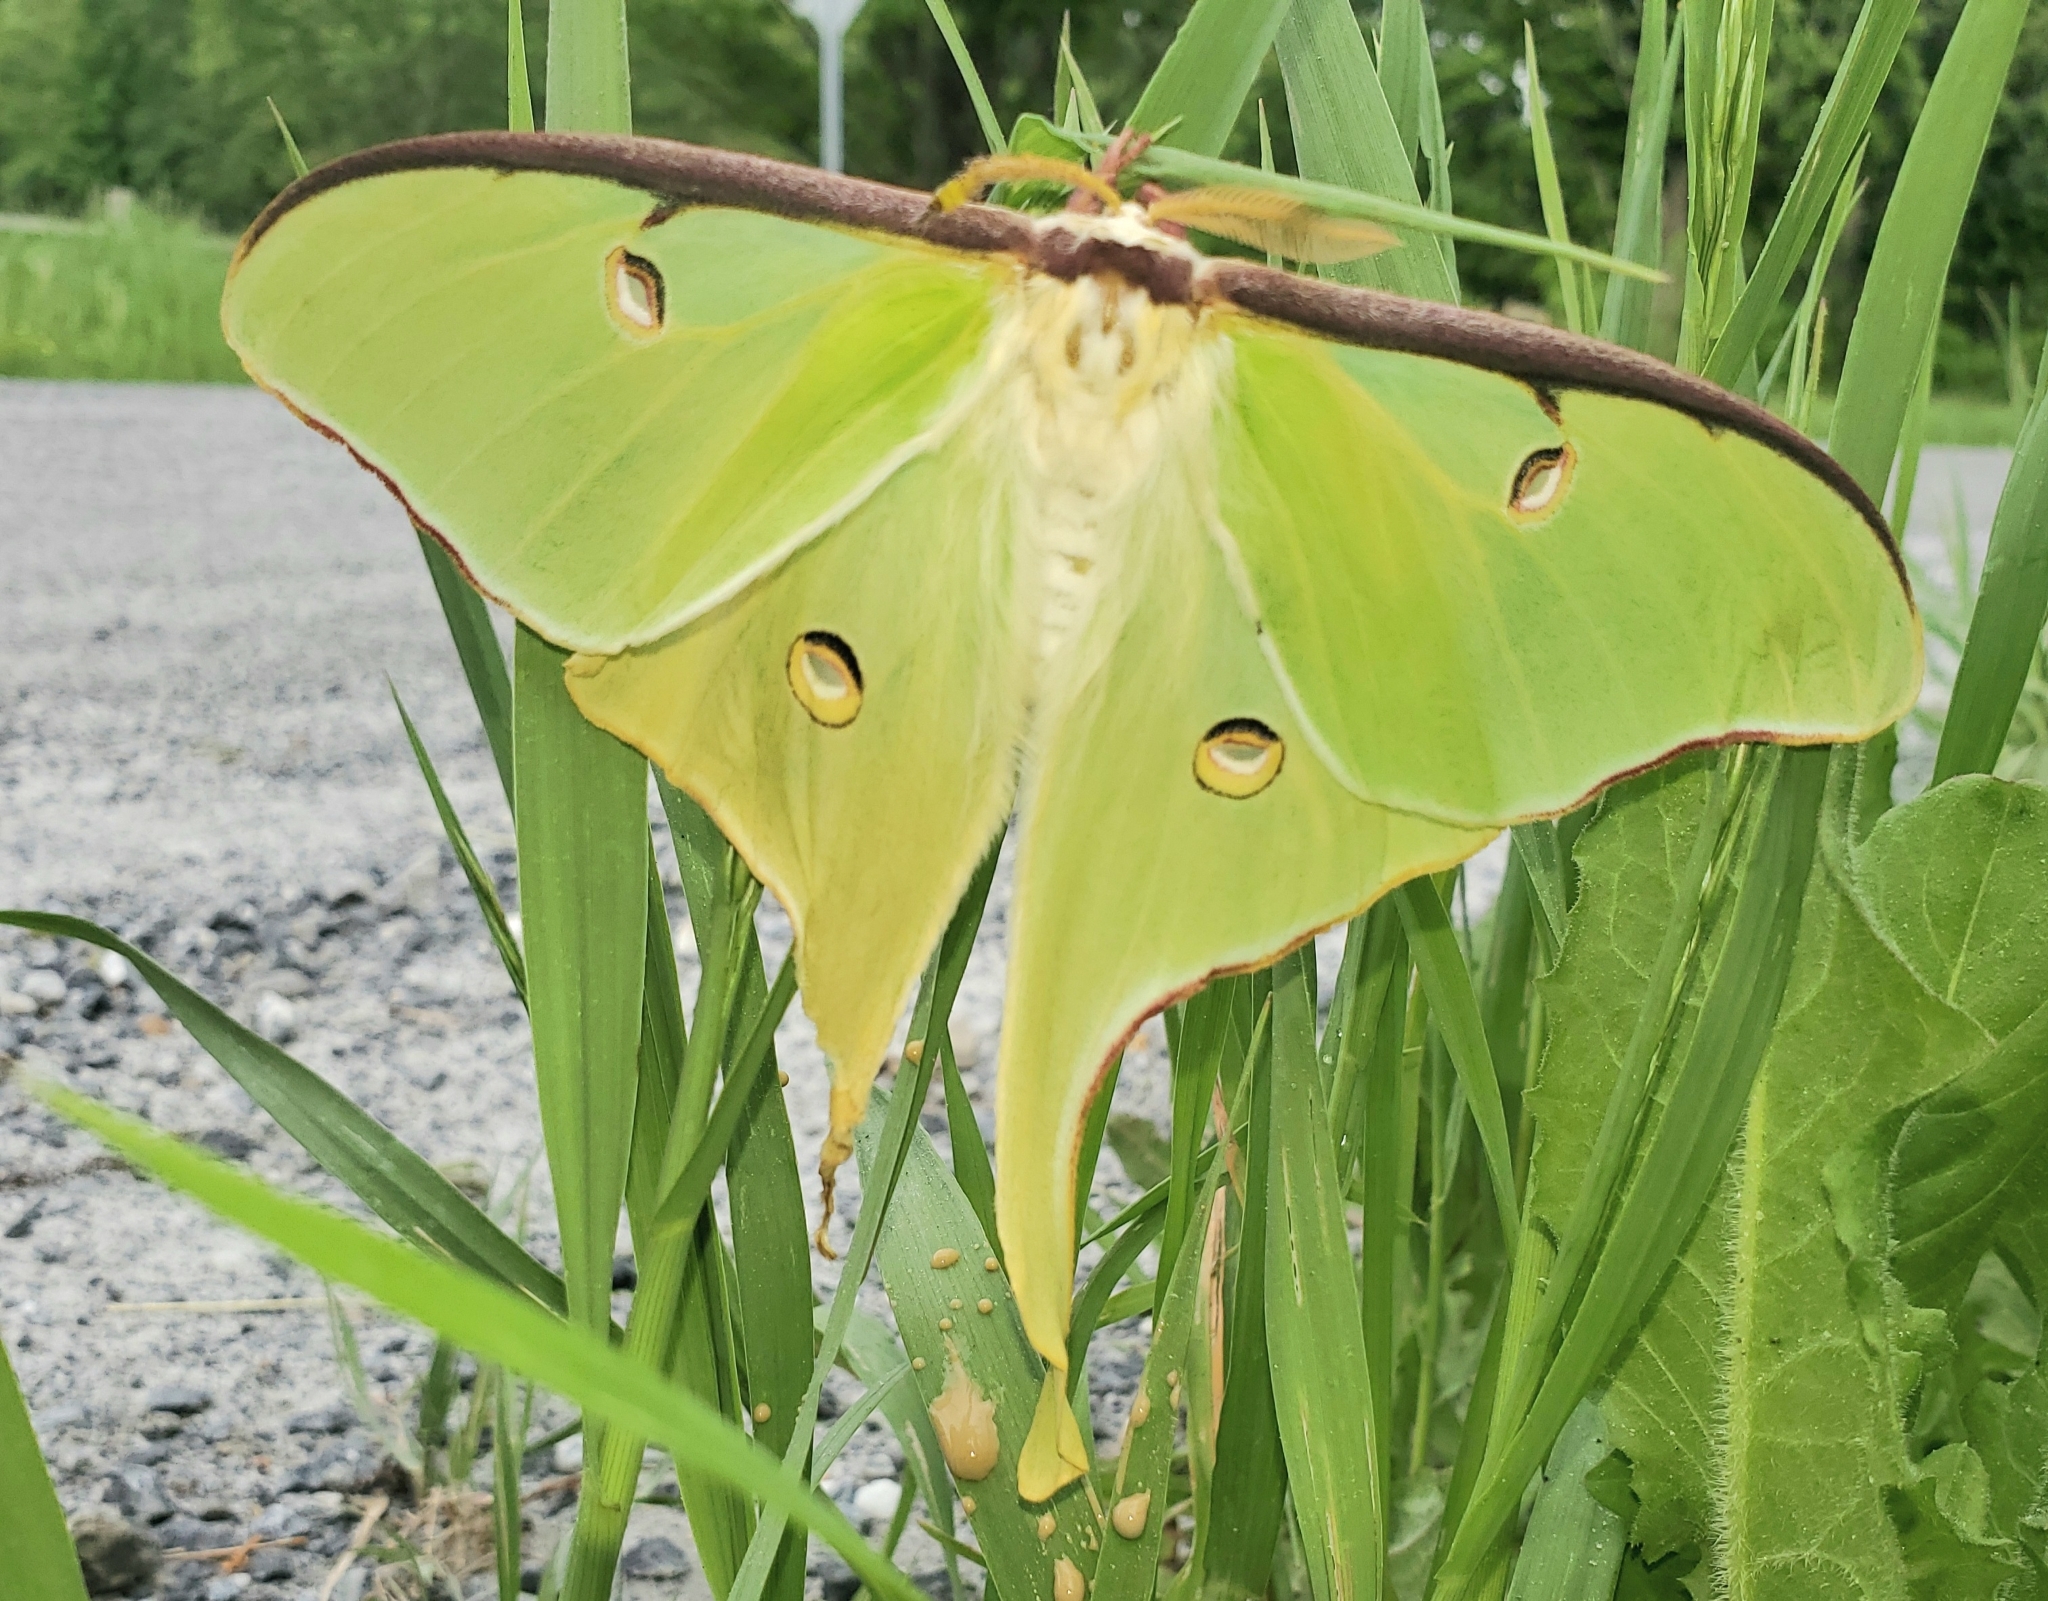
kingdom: Animalia
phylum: Arthropoda
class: Insecta
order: Lepidoptera
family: Saturniidae
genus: Actias
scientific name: Actias luna
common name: Luna moth
